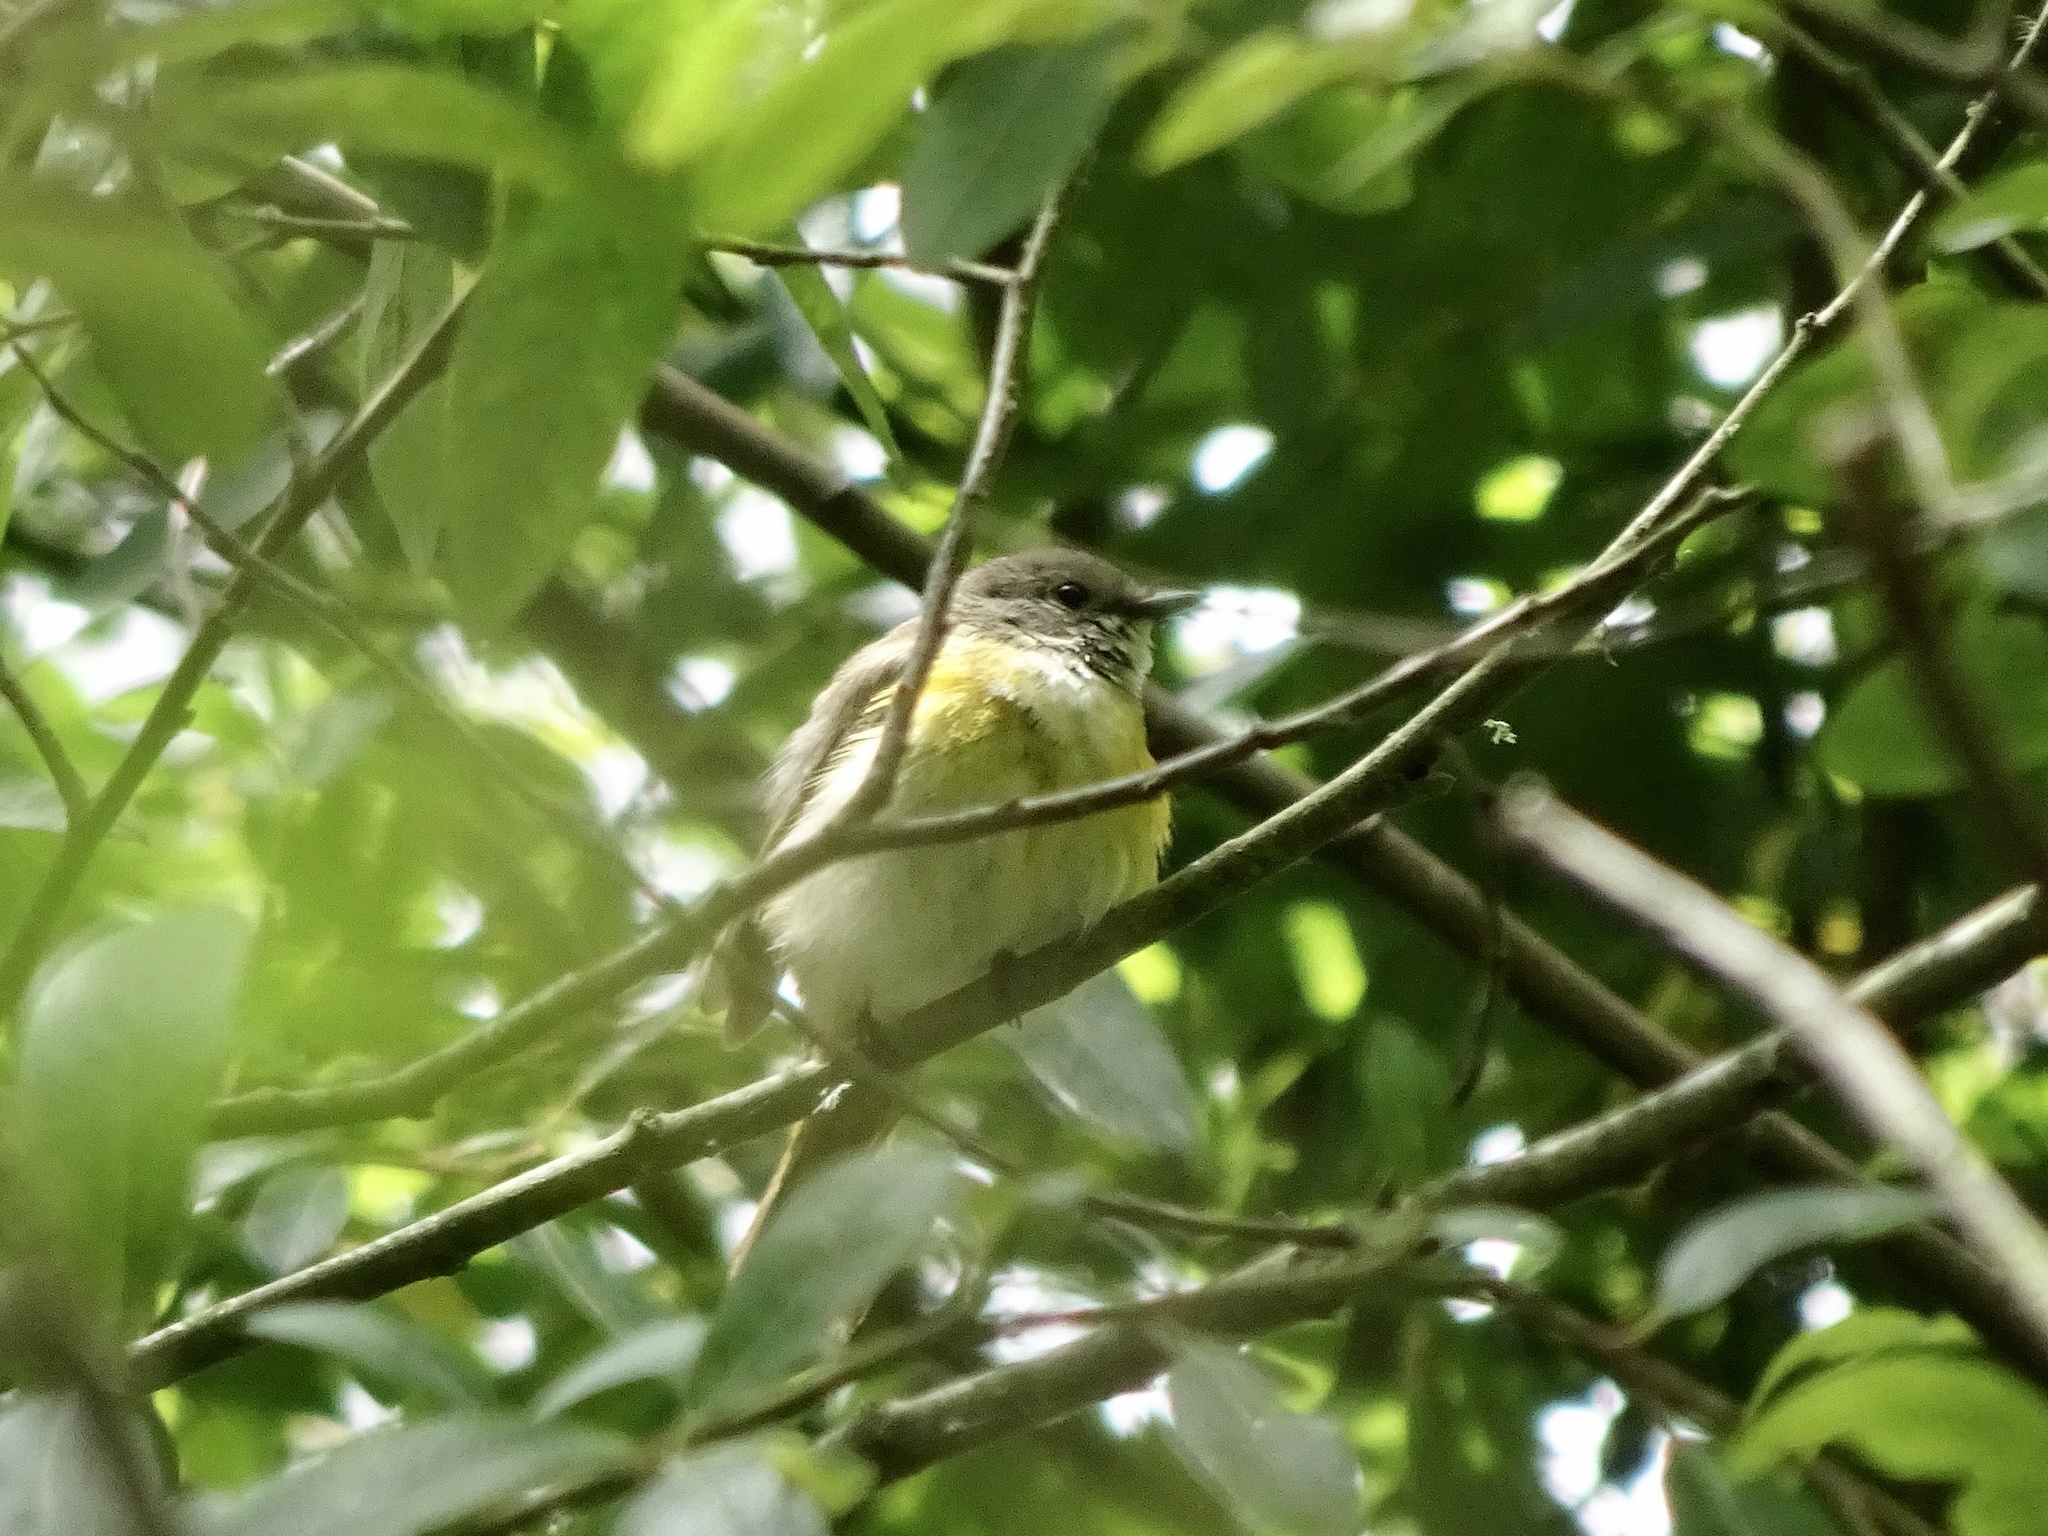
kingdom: Animalia
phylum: Chordata
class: Aves
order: Passeriformes
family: Parulidae
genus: Setophaga
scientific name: Setophaga ruticilla
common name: American redstart
